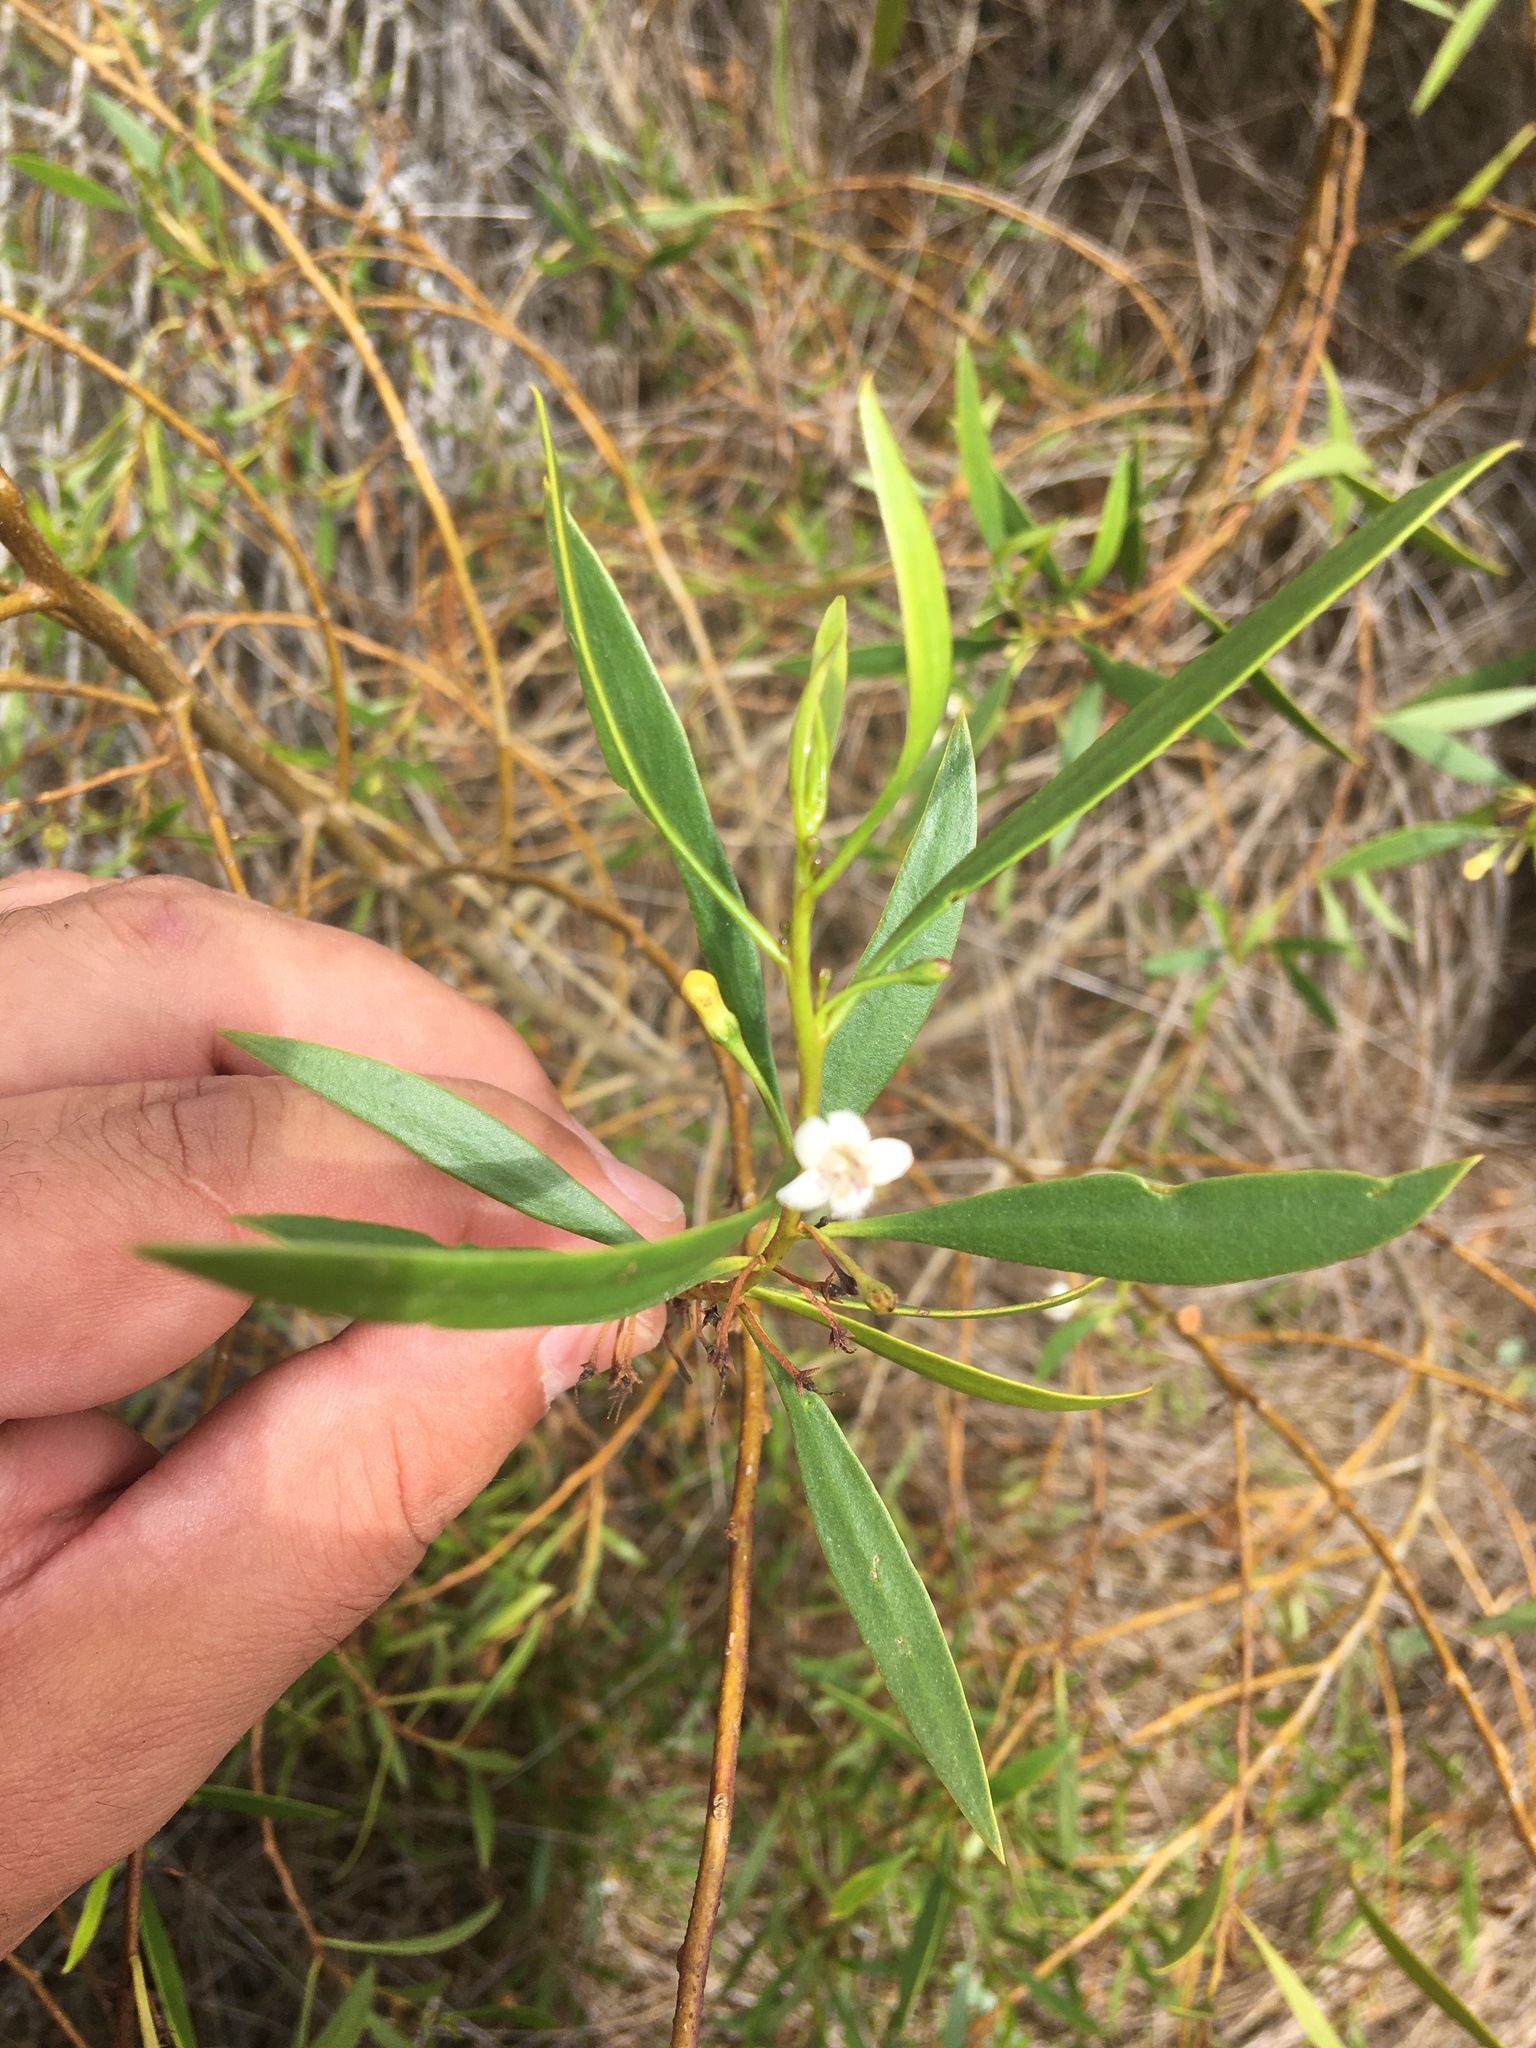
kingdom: Plantae
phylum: Tracheophyta
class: Magnoliopsida
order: Lamiales
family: Scrophulariaceae
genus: Myoporum
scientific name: Myoporum acuminatum
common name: Pointed boobialla
